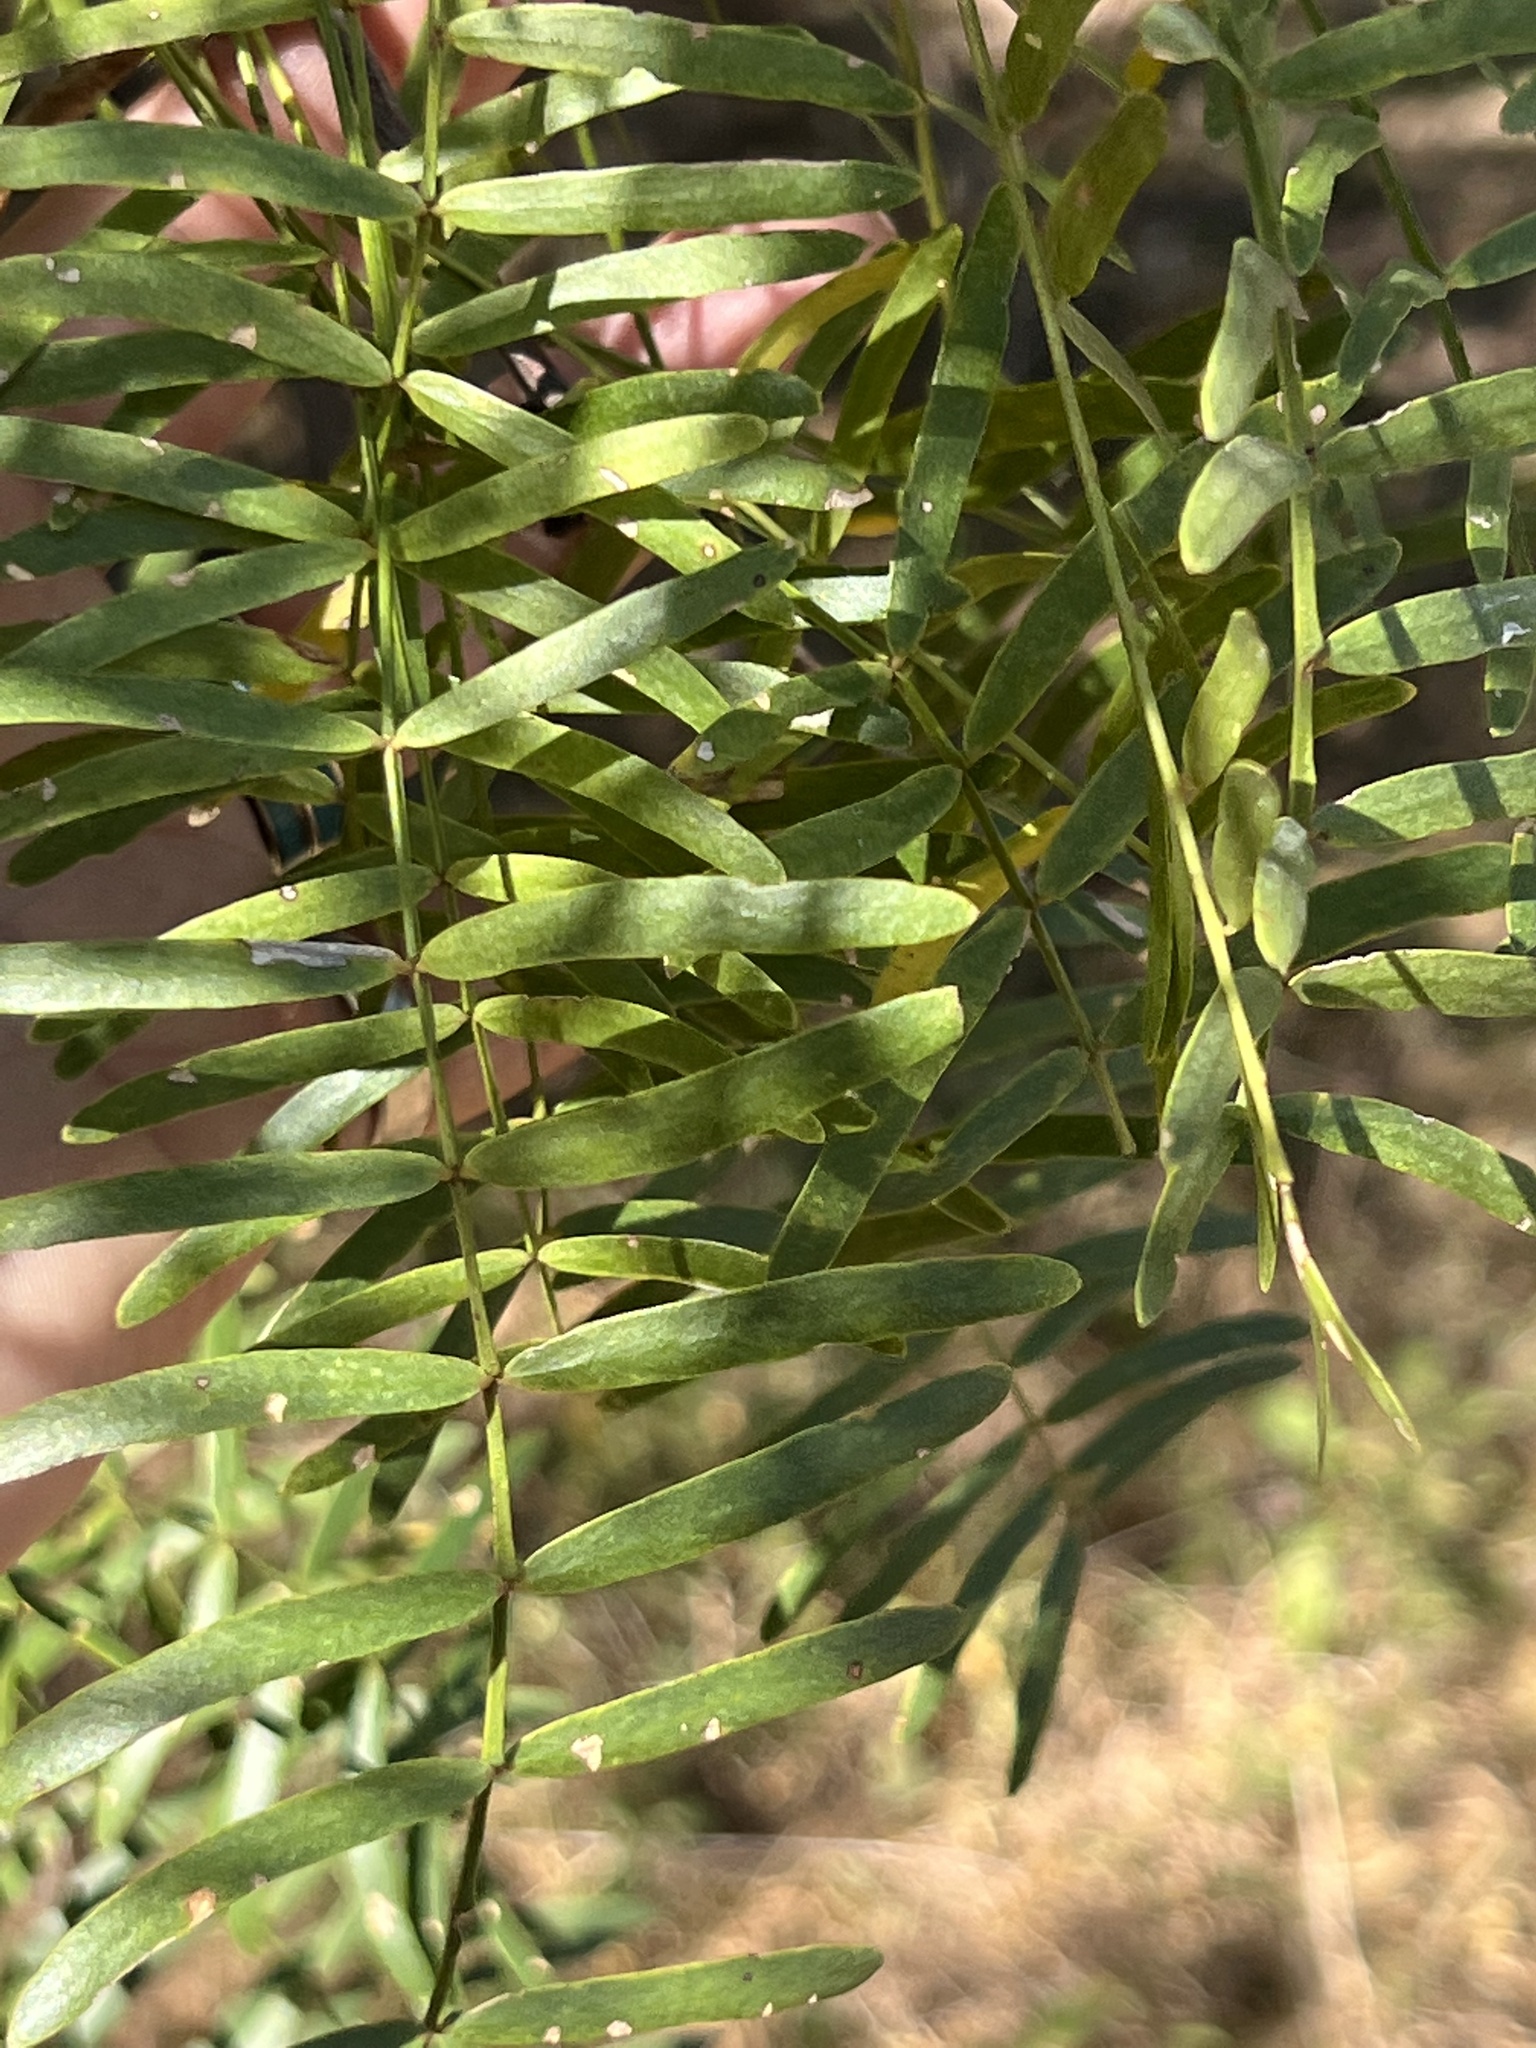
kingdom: Plantae
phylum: Tracheophyta
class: Magnoliopsida
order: Fabales
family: Fabaceae
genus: Prosopis
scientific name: Prosopis glandulosa
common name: Honey mesquite
